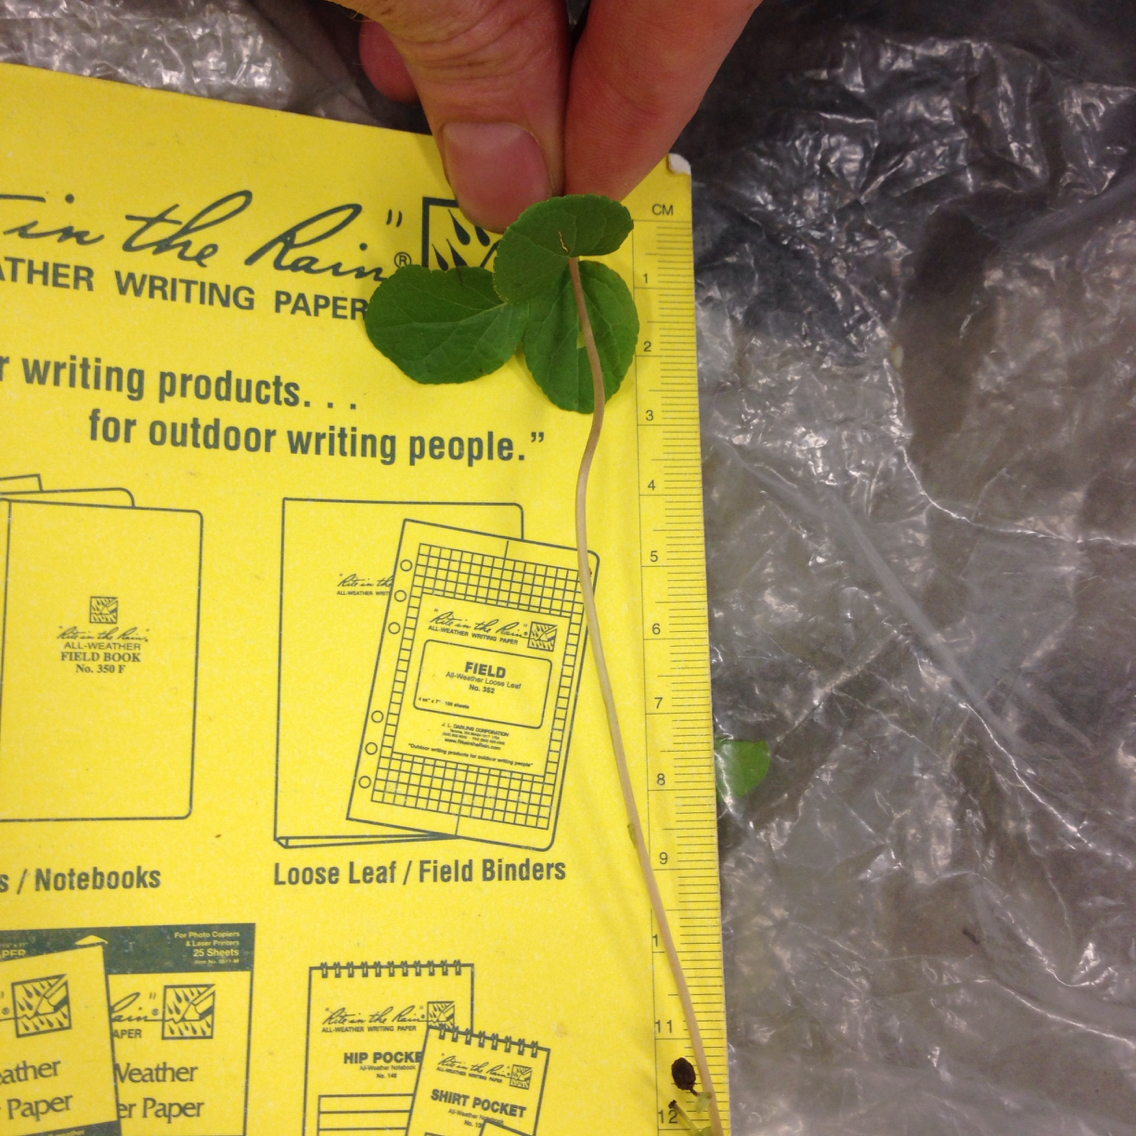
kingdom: Plantae
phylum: Tracheophyta
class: Magnoliopsida
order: Ericales
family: Ericaceae
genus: Orthilia
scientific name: Orthilia secunda
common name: One-sided orthilia
